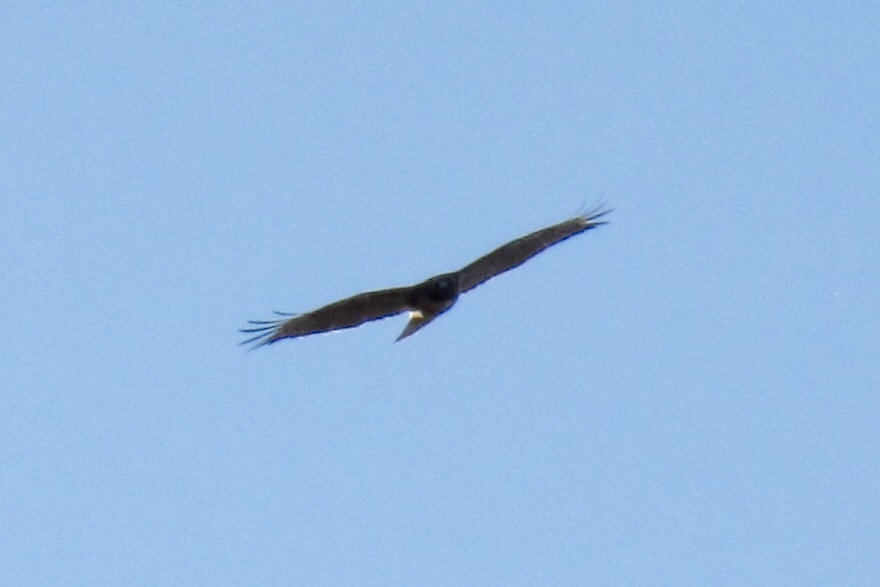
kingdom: Animalia
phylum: Chordata
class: Aves
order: Accipitriformes
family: Accipitridae
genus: Buteo
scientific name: Buteo jamaicensis
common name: Red-tailed hawk
